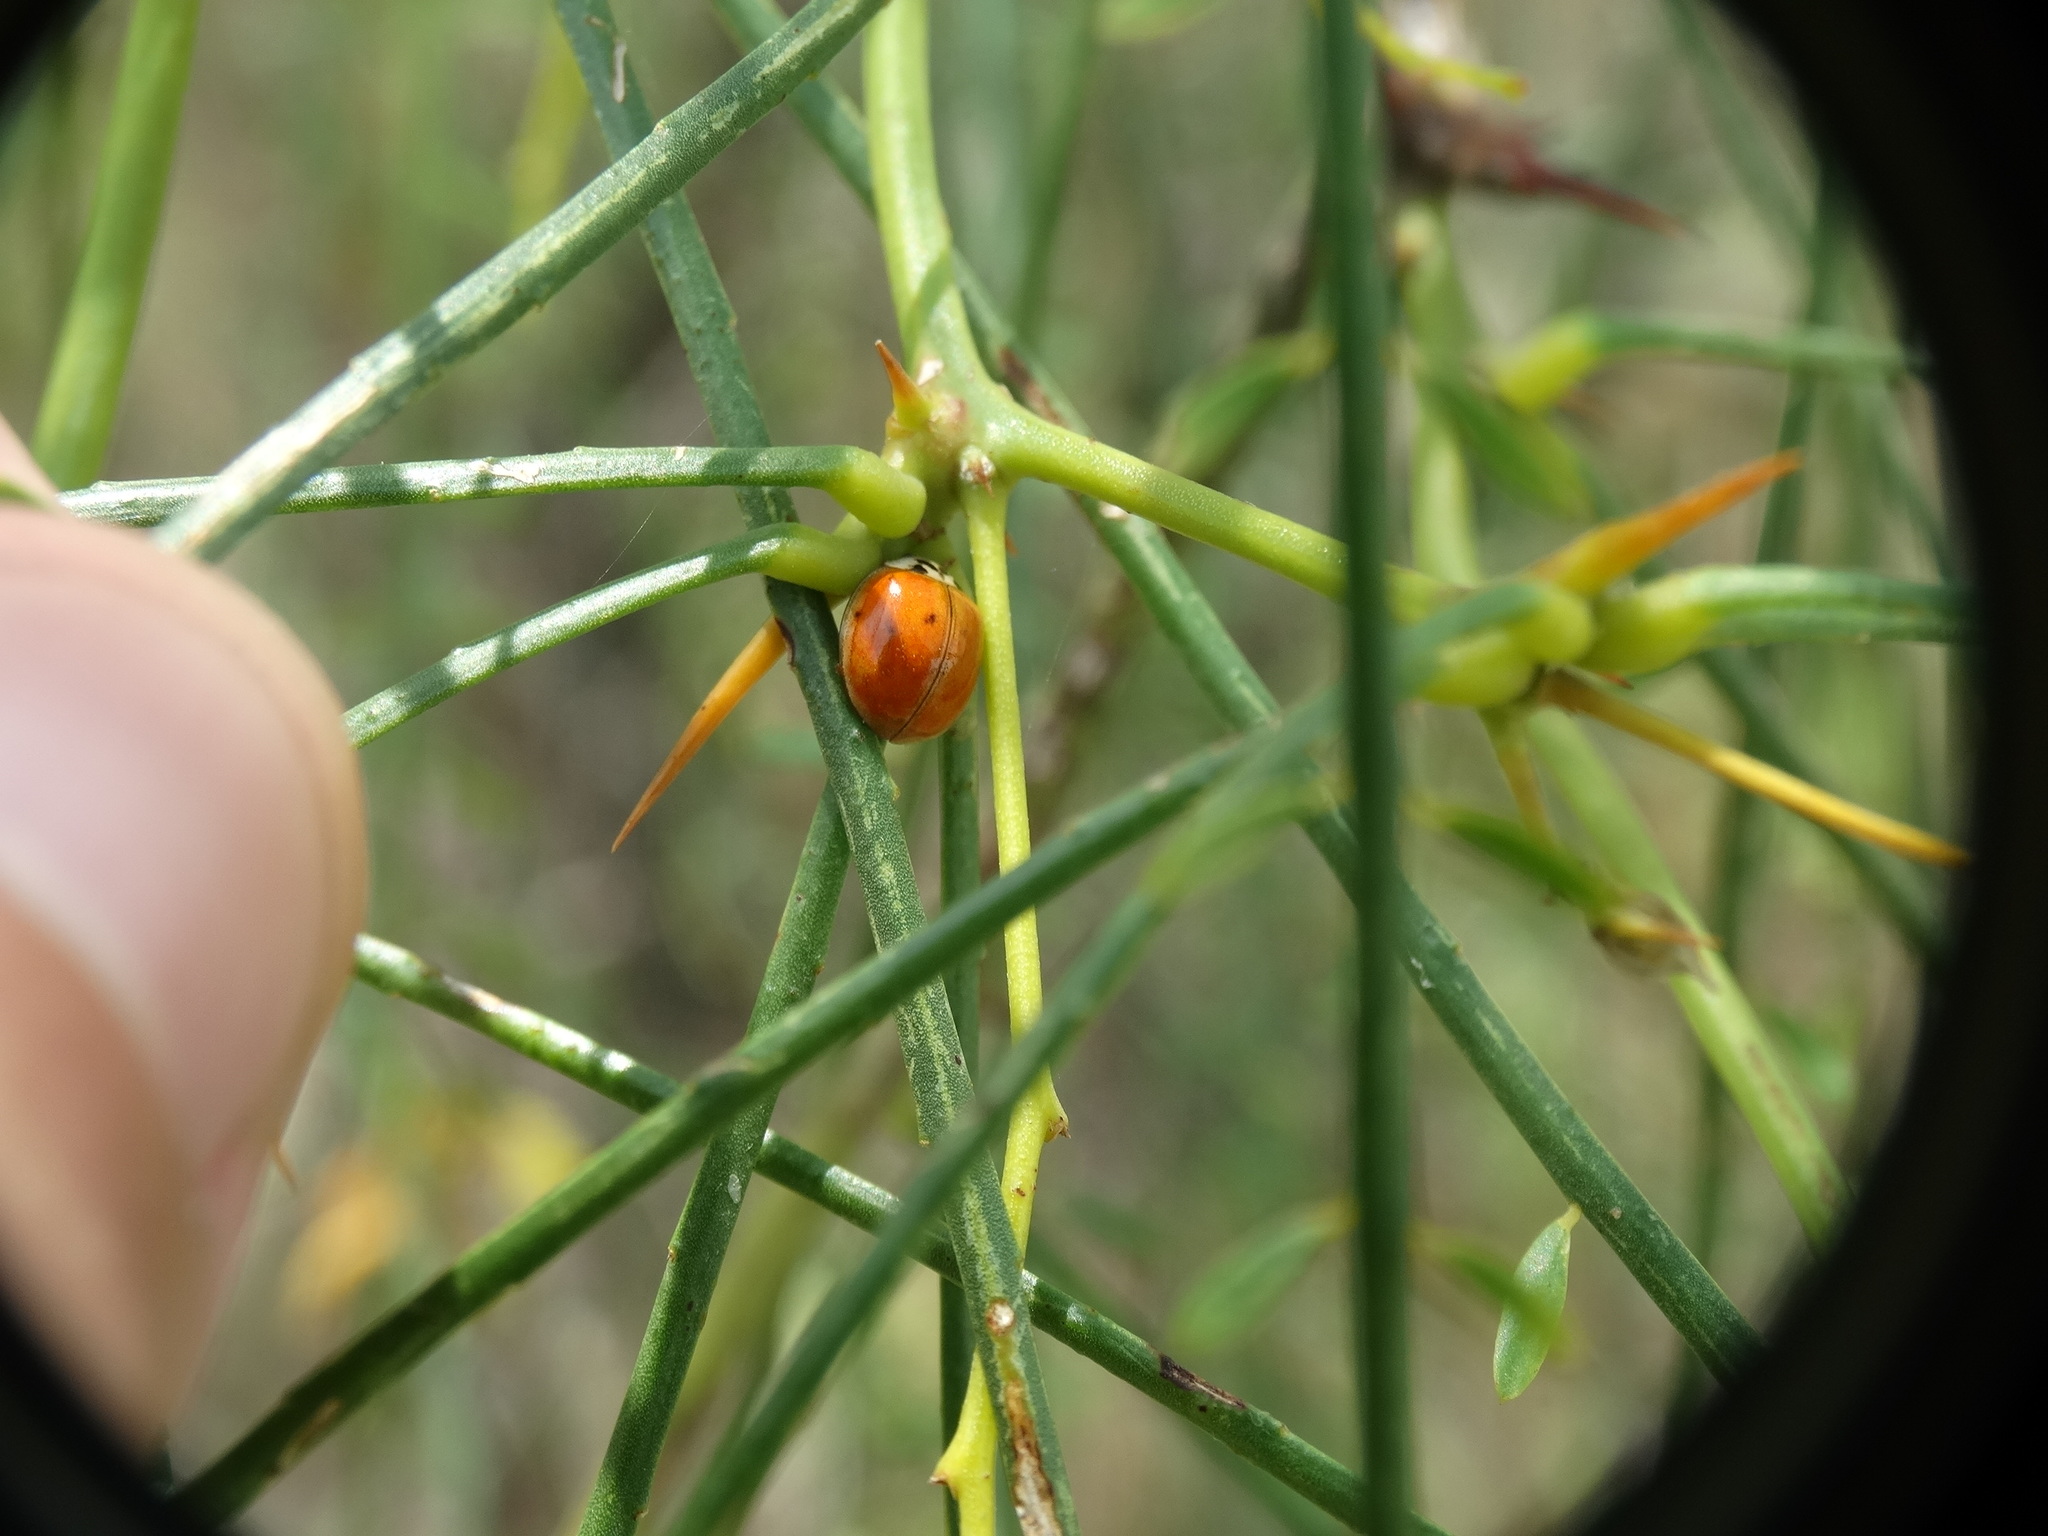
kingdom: Animalia
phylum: Arthropoda
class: Insecta
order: Coleoptera
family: Coccinellidae
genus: Harmonia
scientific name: Harmonia axyridis
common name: Harlequin ladybird
